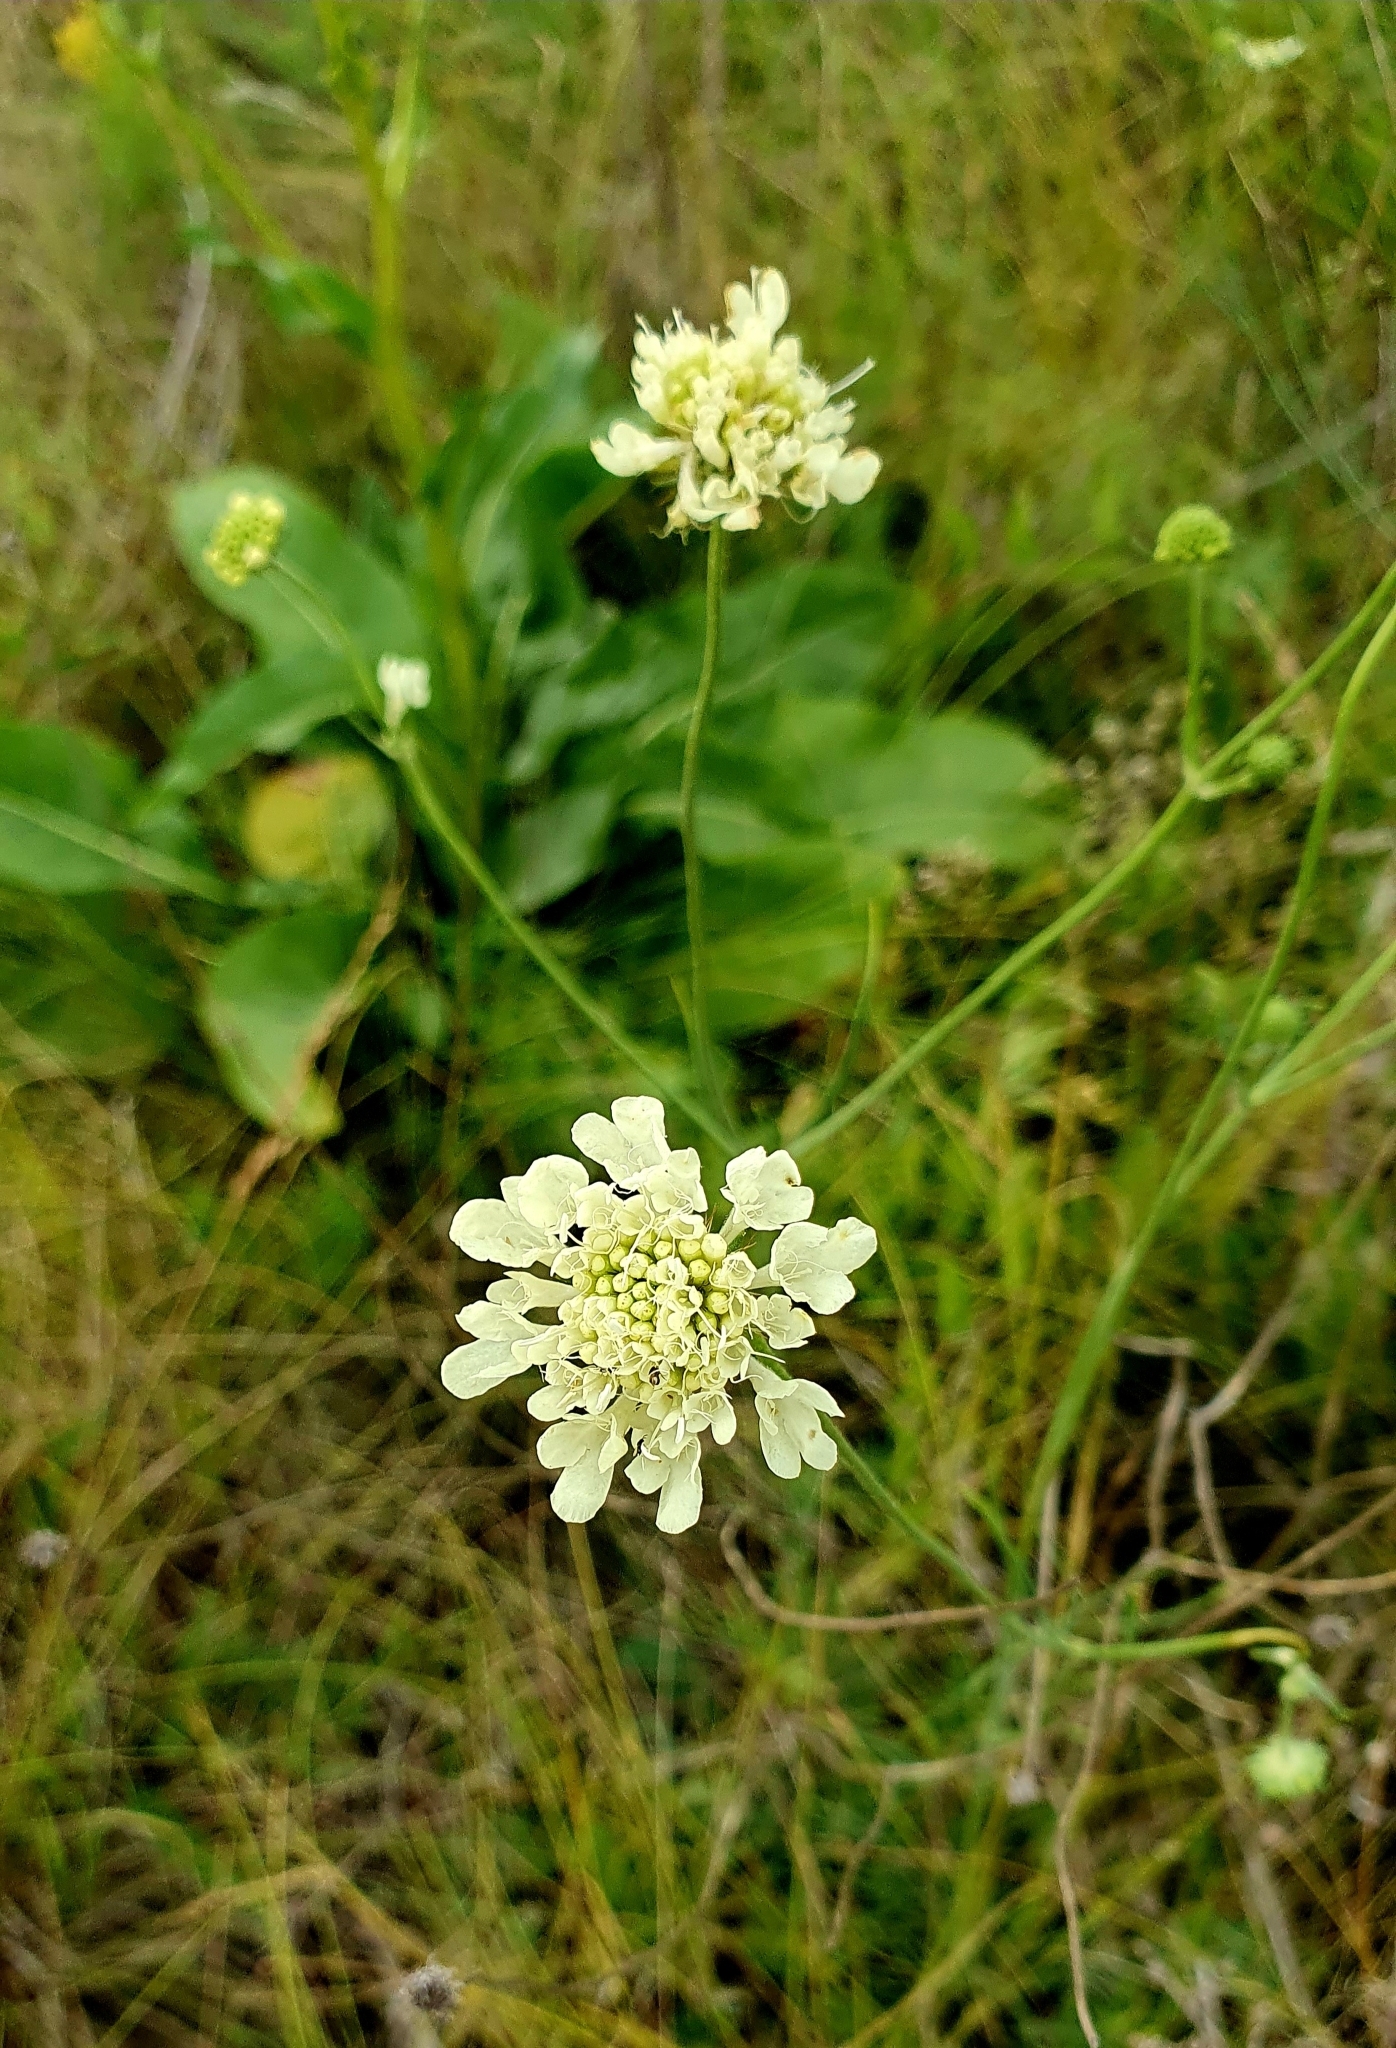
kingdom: Plantae
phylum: Tracheophyta
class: Magnoliopsida
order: Dipsacales
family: Caprifoliaceae
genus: Scabiosa
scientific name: Scabiosa ochroleuca
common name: Cream pincushions
